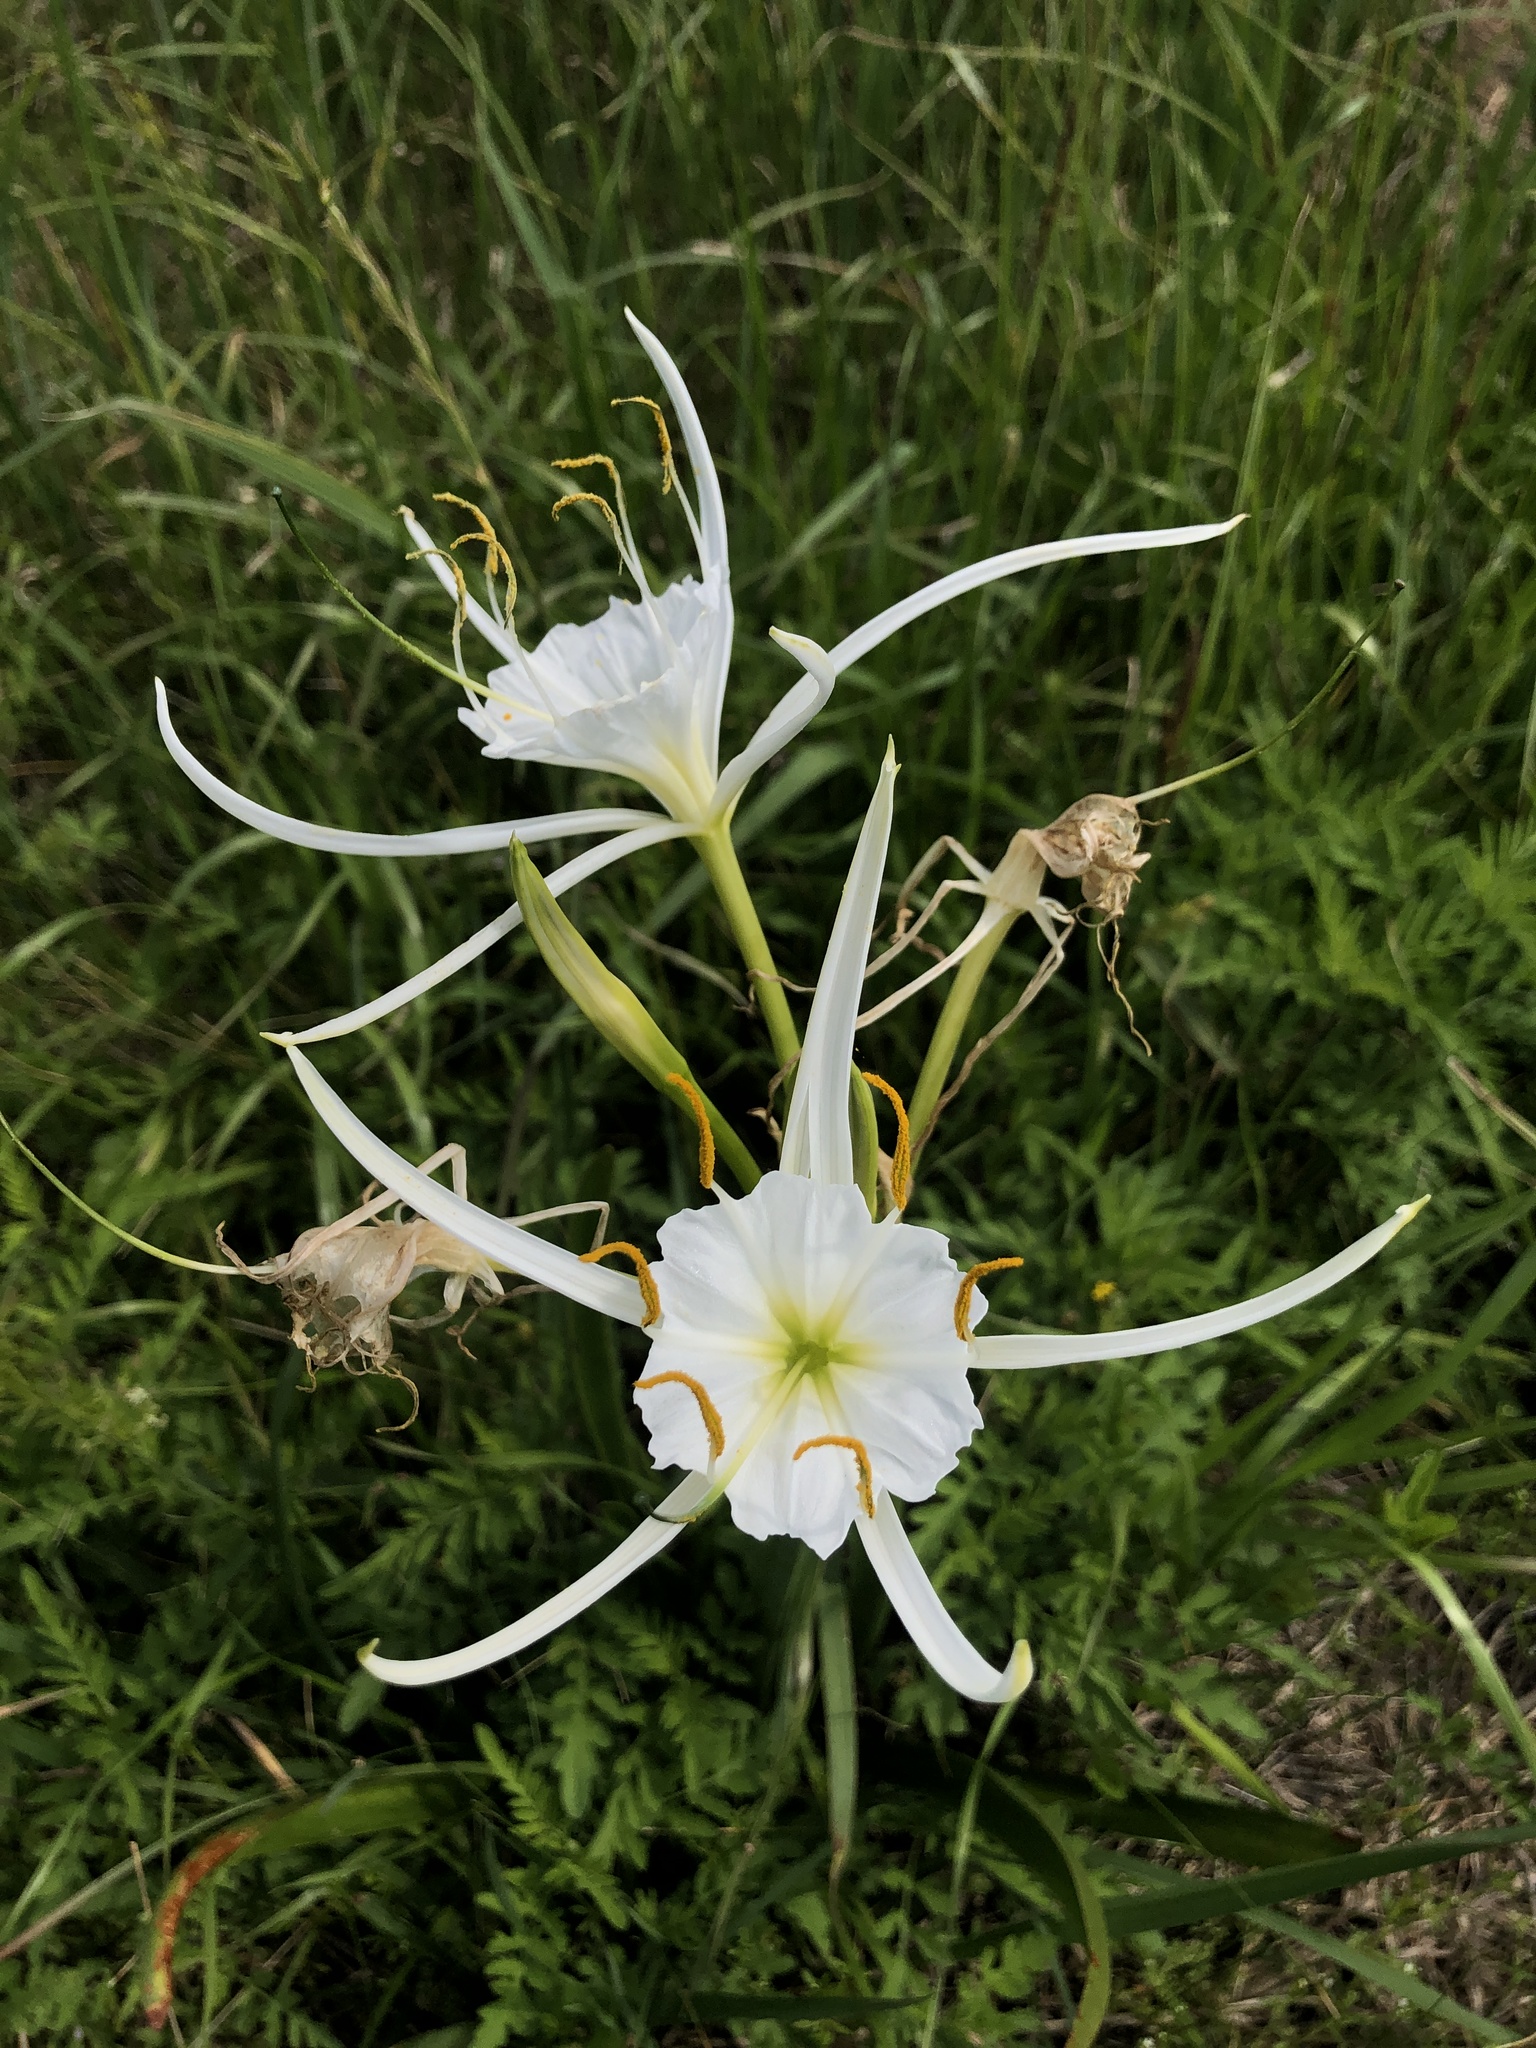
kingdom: Plantae
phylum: Tracheophyta
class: Liliopsida
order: Asparagales
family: Amaryllidaceae
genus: Hymenocallis
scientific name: Hymenocallis liriosme
